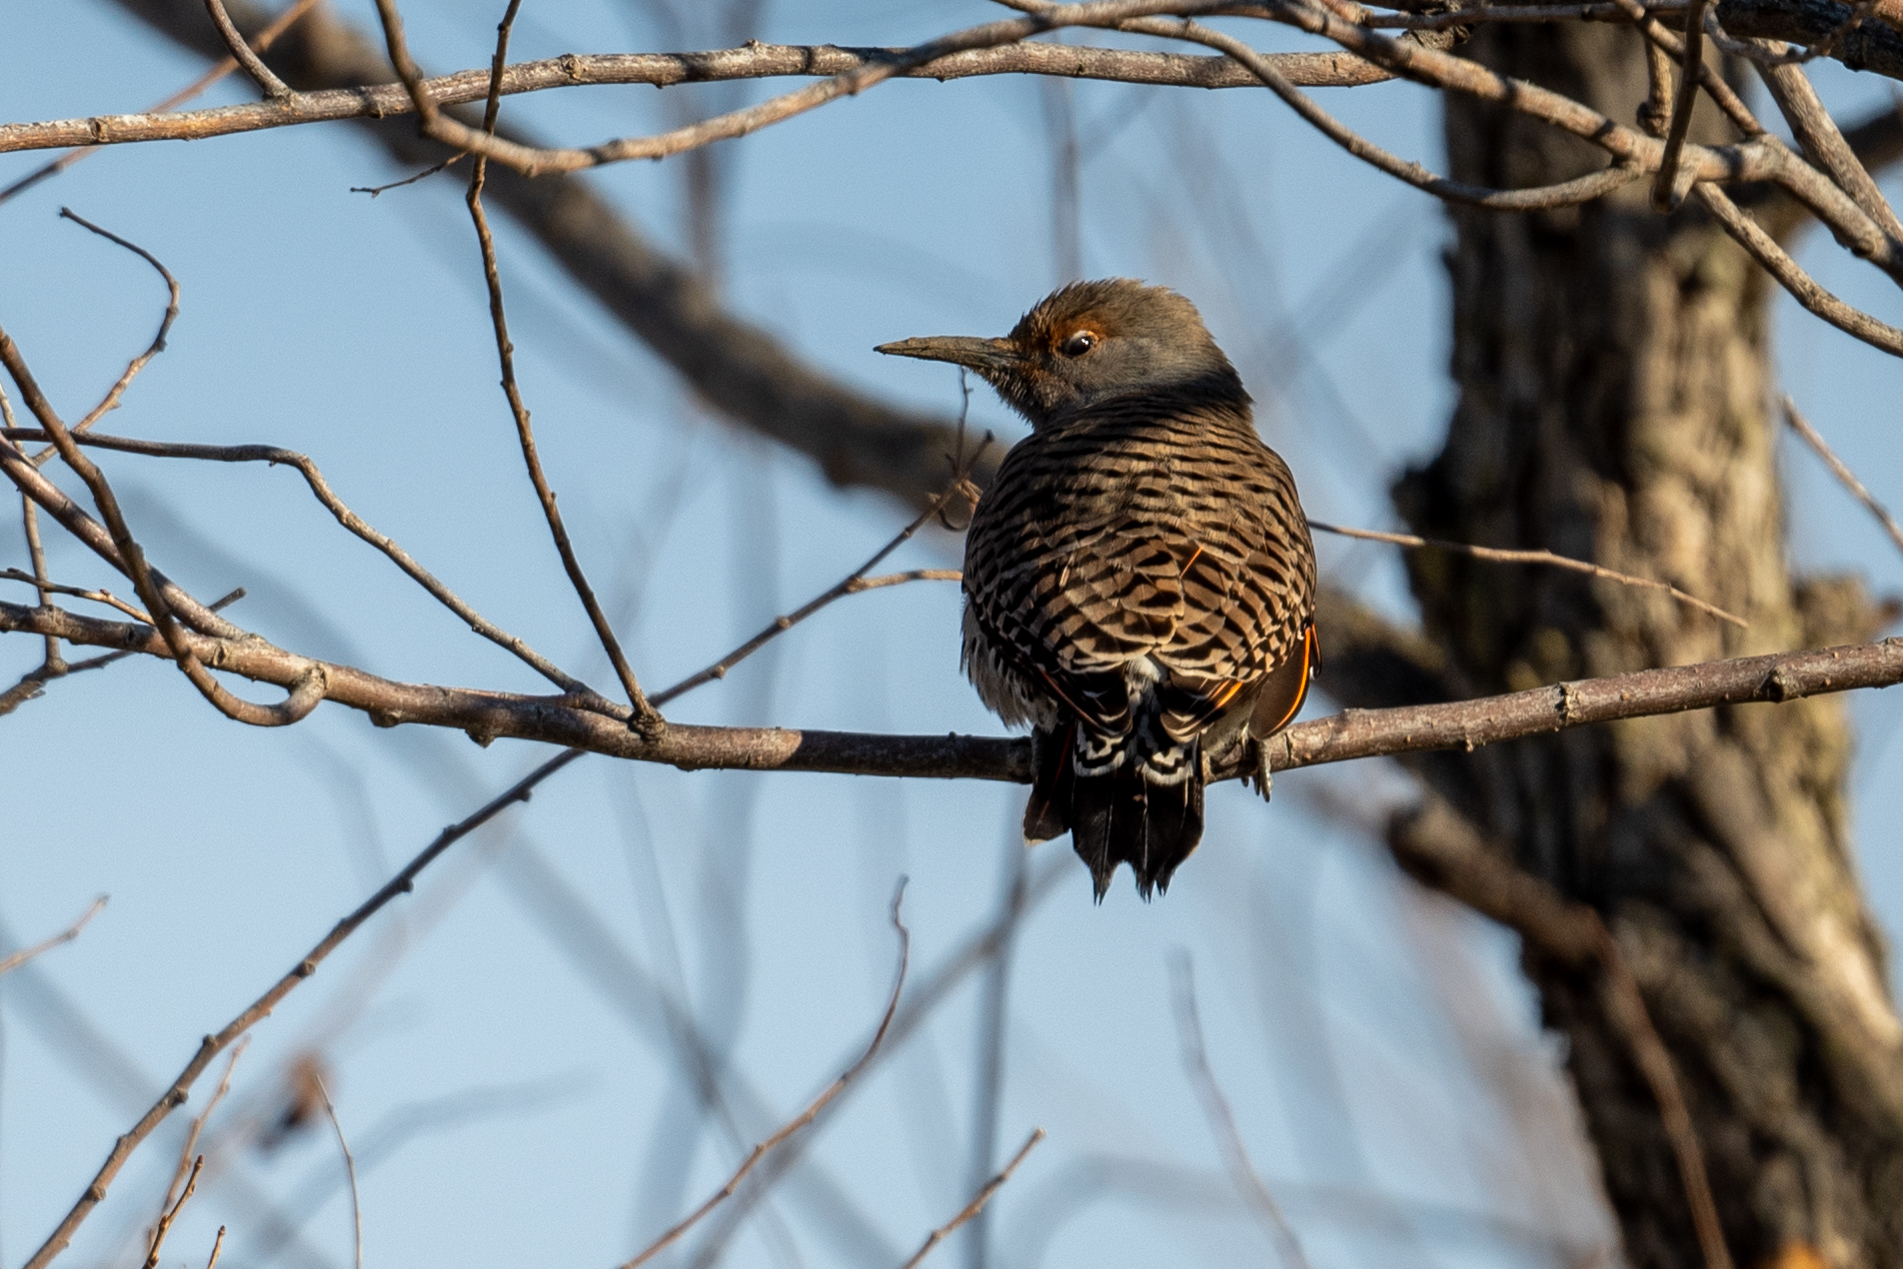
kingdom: Animalia
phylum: Chordata
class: Aves
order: Piciformes
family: Picidae
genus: Colaptes
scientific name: Colaptes auratus
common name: Northern flicker
